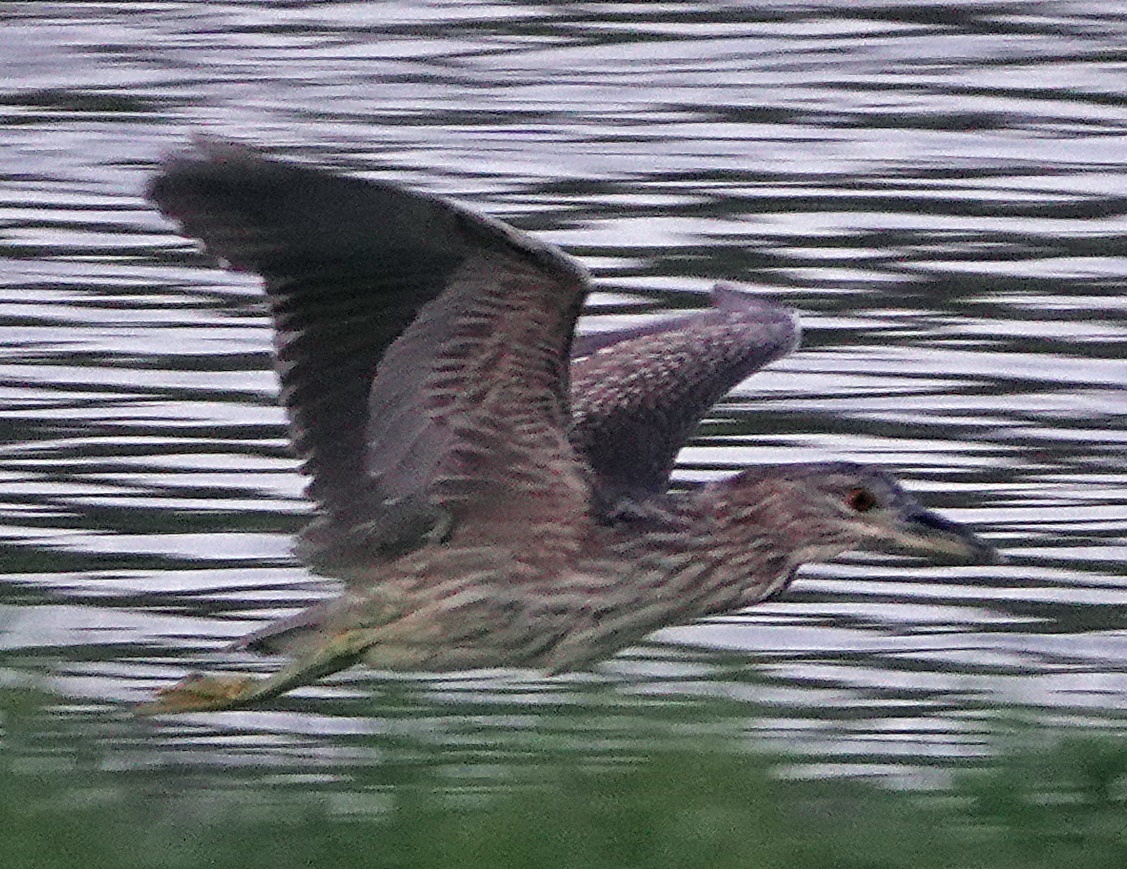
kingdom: Animalia
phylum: Chordata
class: Aves
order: Pelecaniformes
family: Ardeidae
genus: Nycticorax
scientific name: Nycticorax nycticorax
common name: Black-crowned night heron
